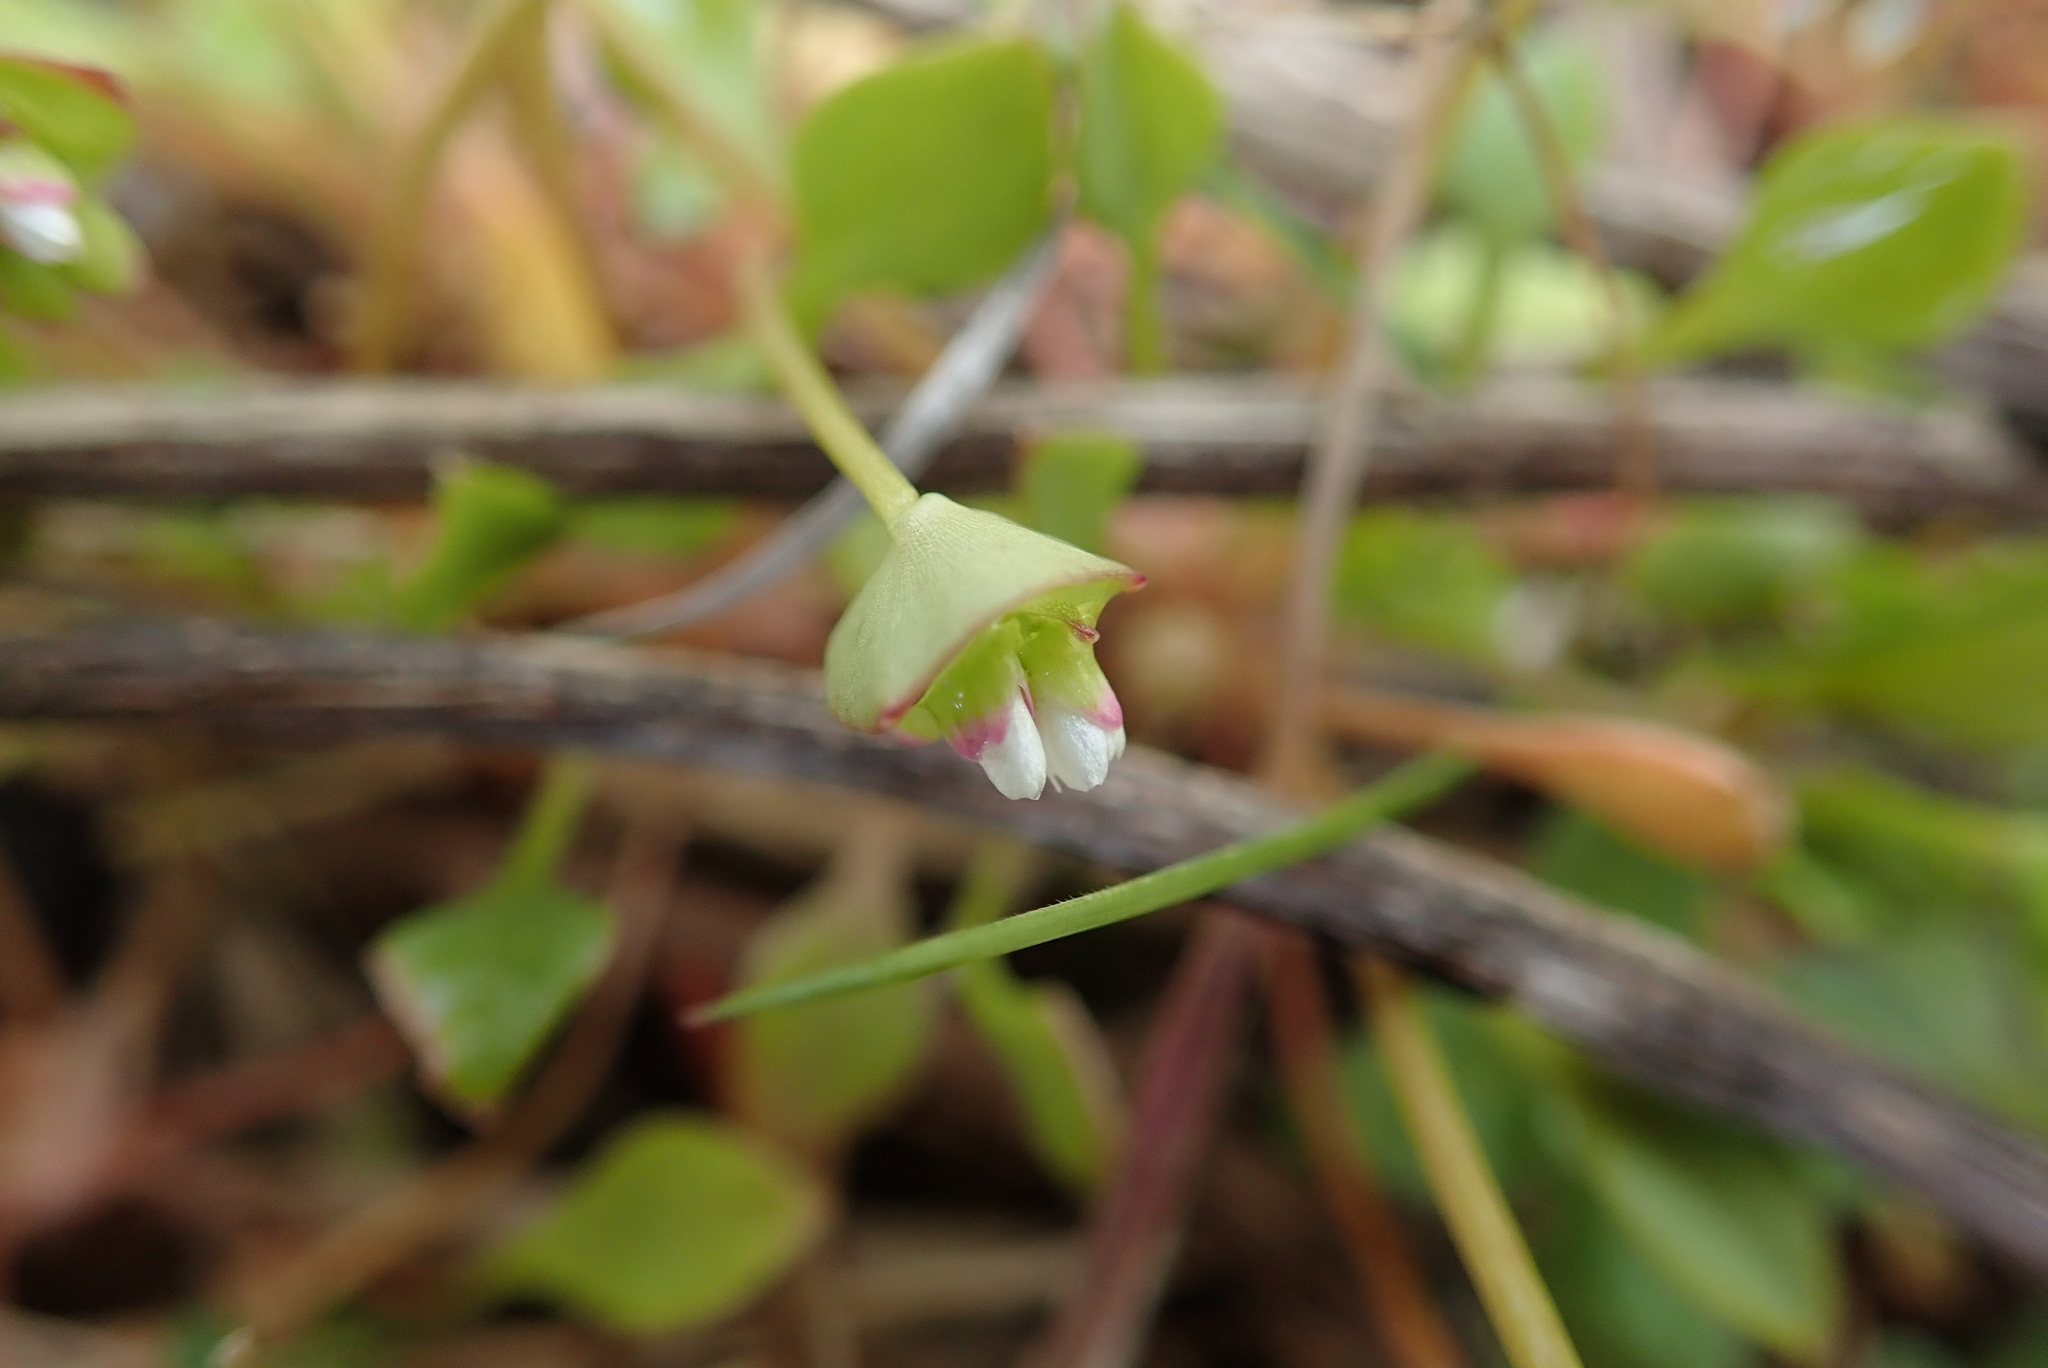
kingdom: Plantae
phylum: Tracheophyta
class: Magnoliopsida
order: Caryophyllales
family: Montiaceae
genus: Claytonia
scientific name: Claytonia rubra
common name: Erubescent miner's-lettuce
